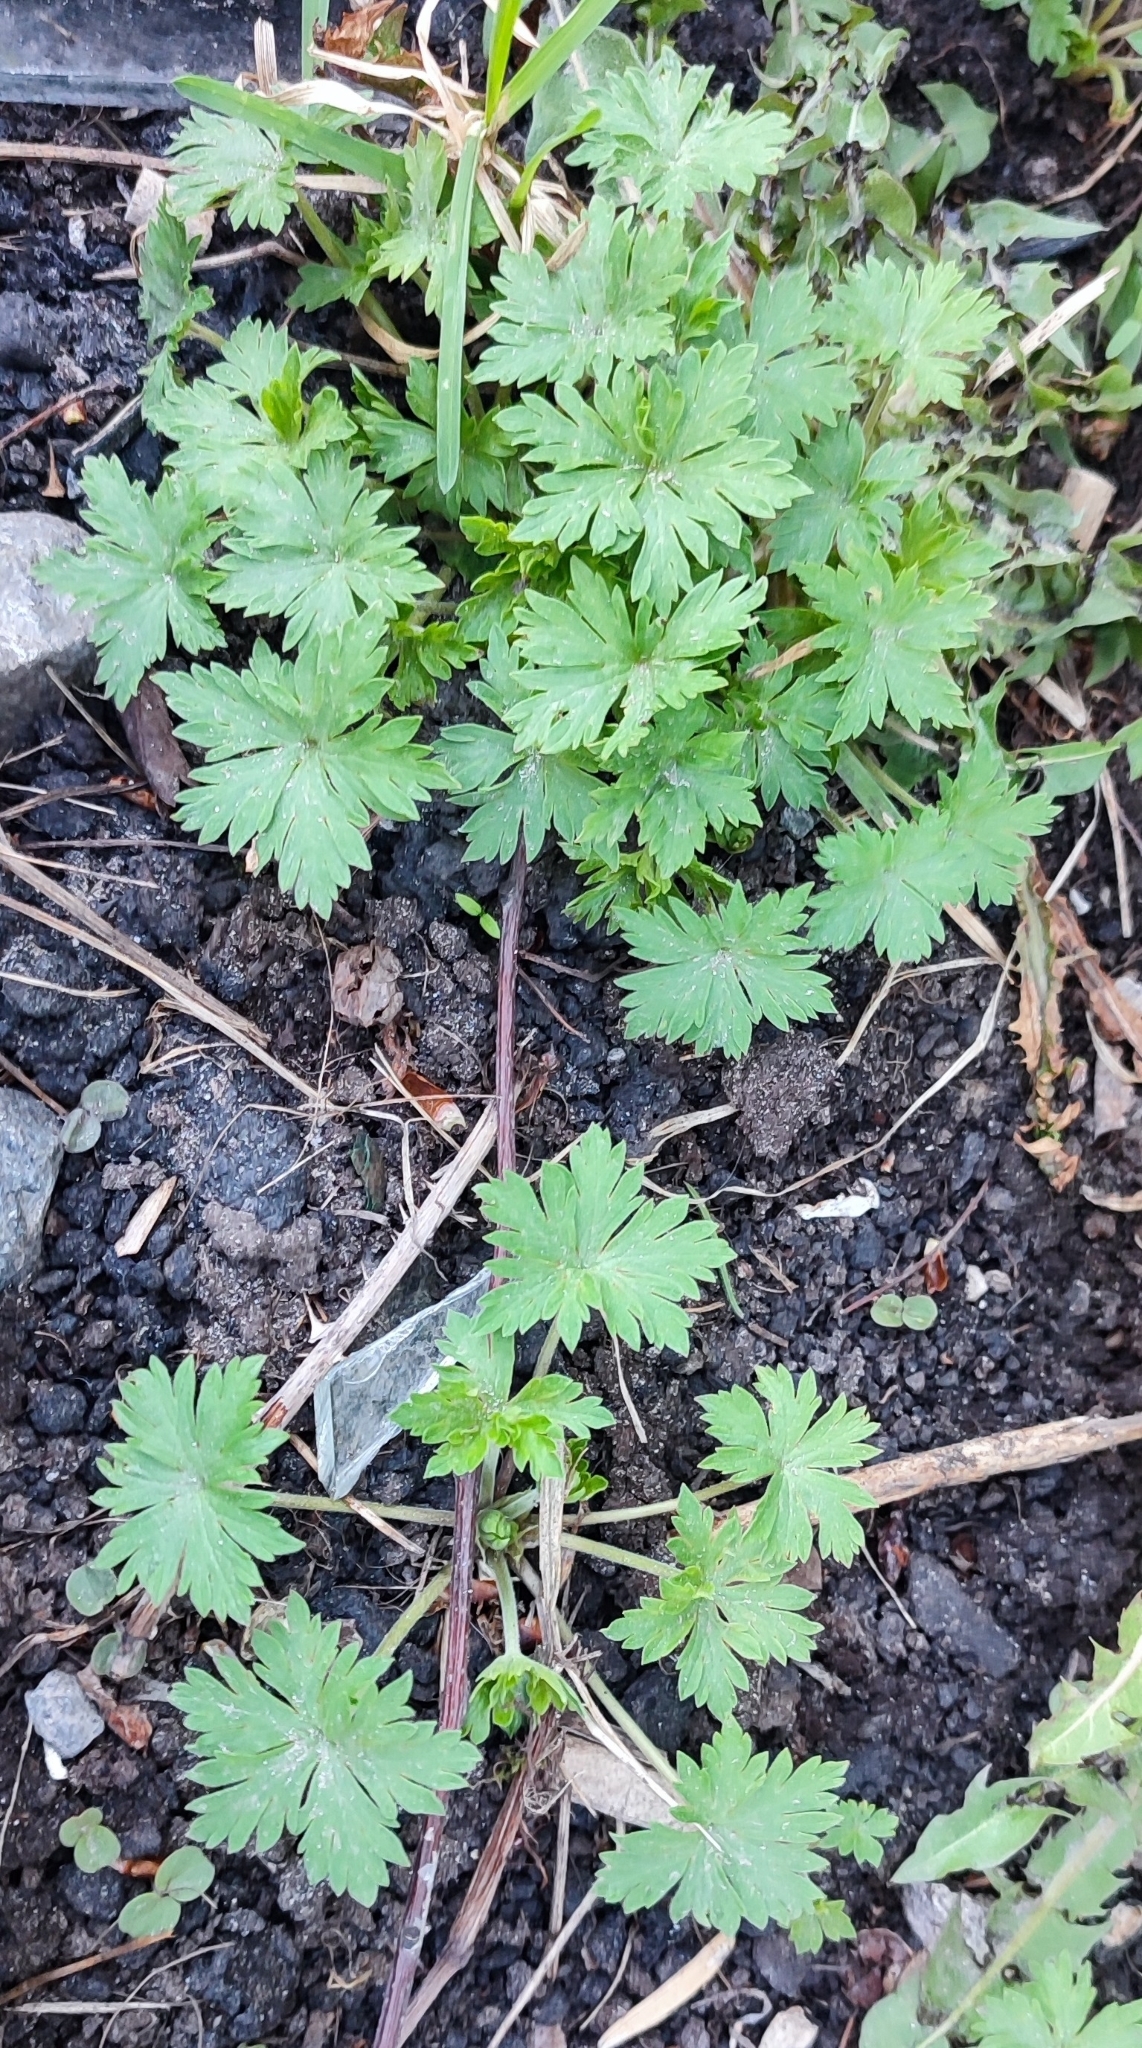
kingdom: Plantae
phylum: Tracheophyta
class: Magnoliopsida
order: Geraniales
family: Geraniaceae
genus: Geranium
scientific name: Geranium sibiricum
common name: Siberian crane's-bill
